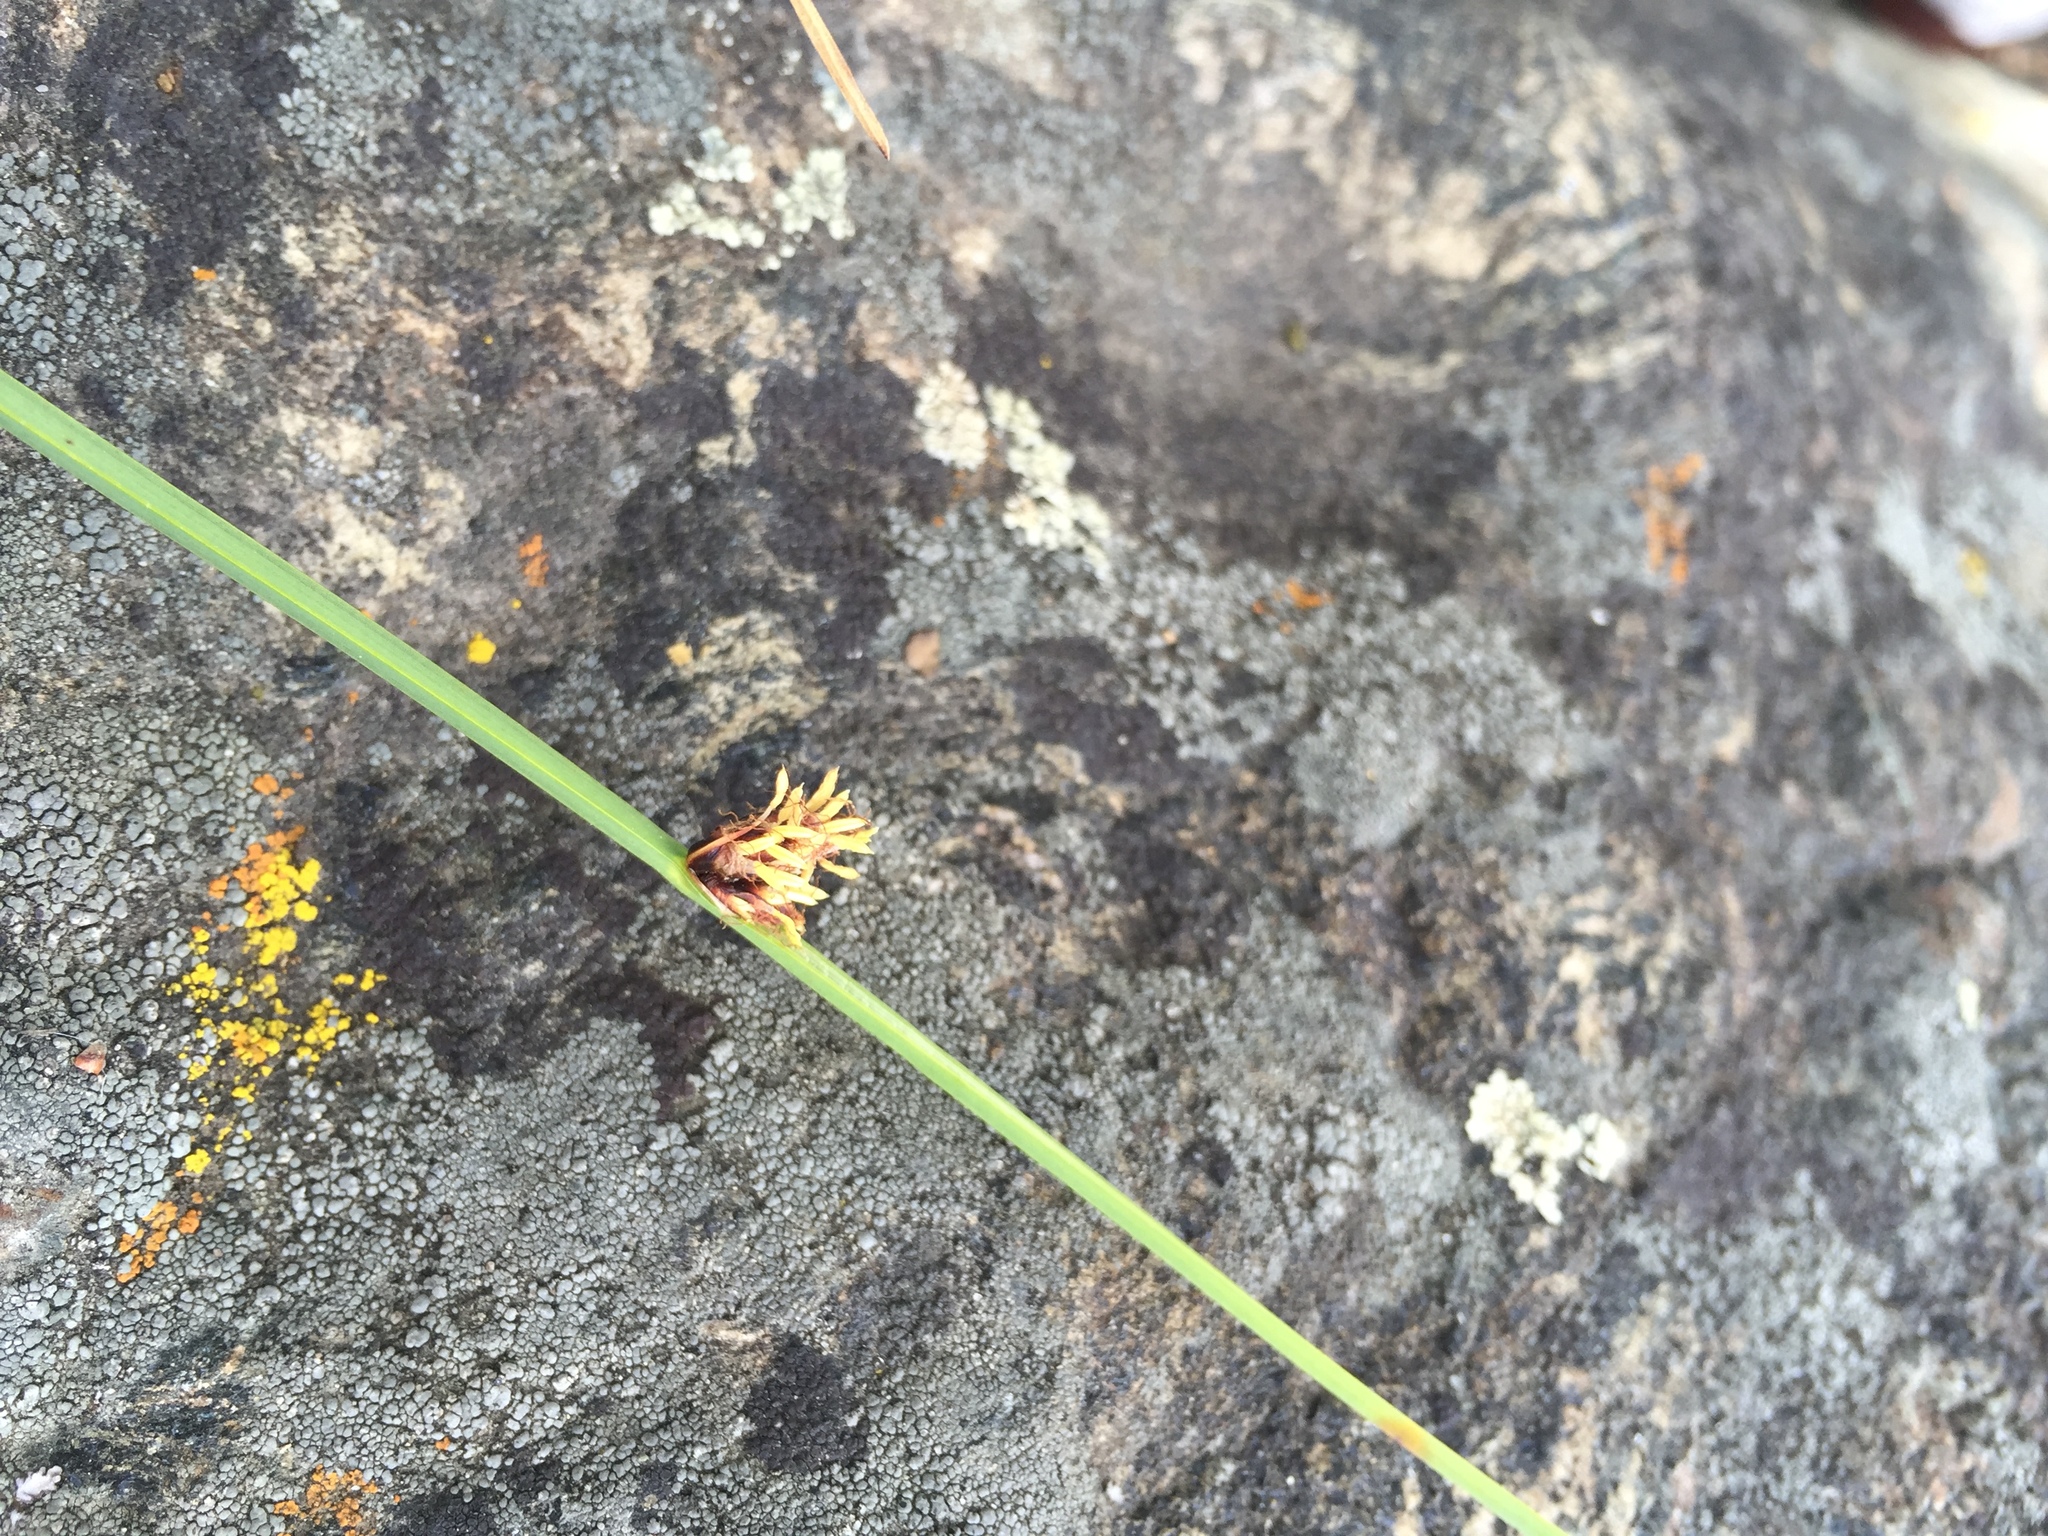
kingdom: Plantae
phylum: Tracheophyta
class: Liliopsida
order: Poales
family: Cyperaceae
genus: Schoenoplectus
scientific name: Schoenoplectus pungens
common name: Sharp club-rush
